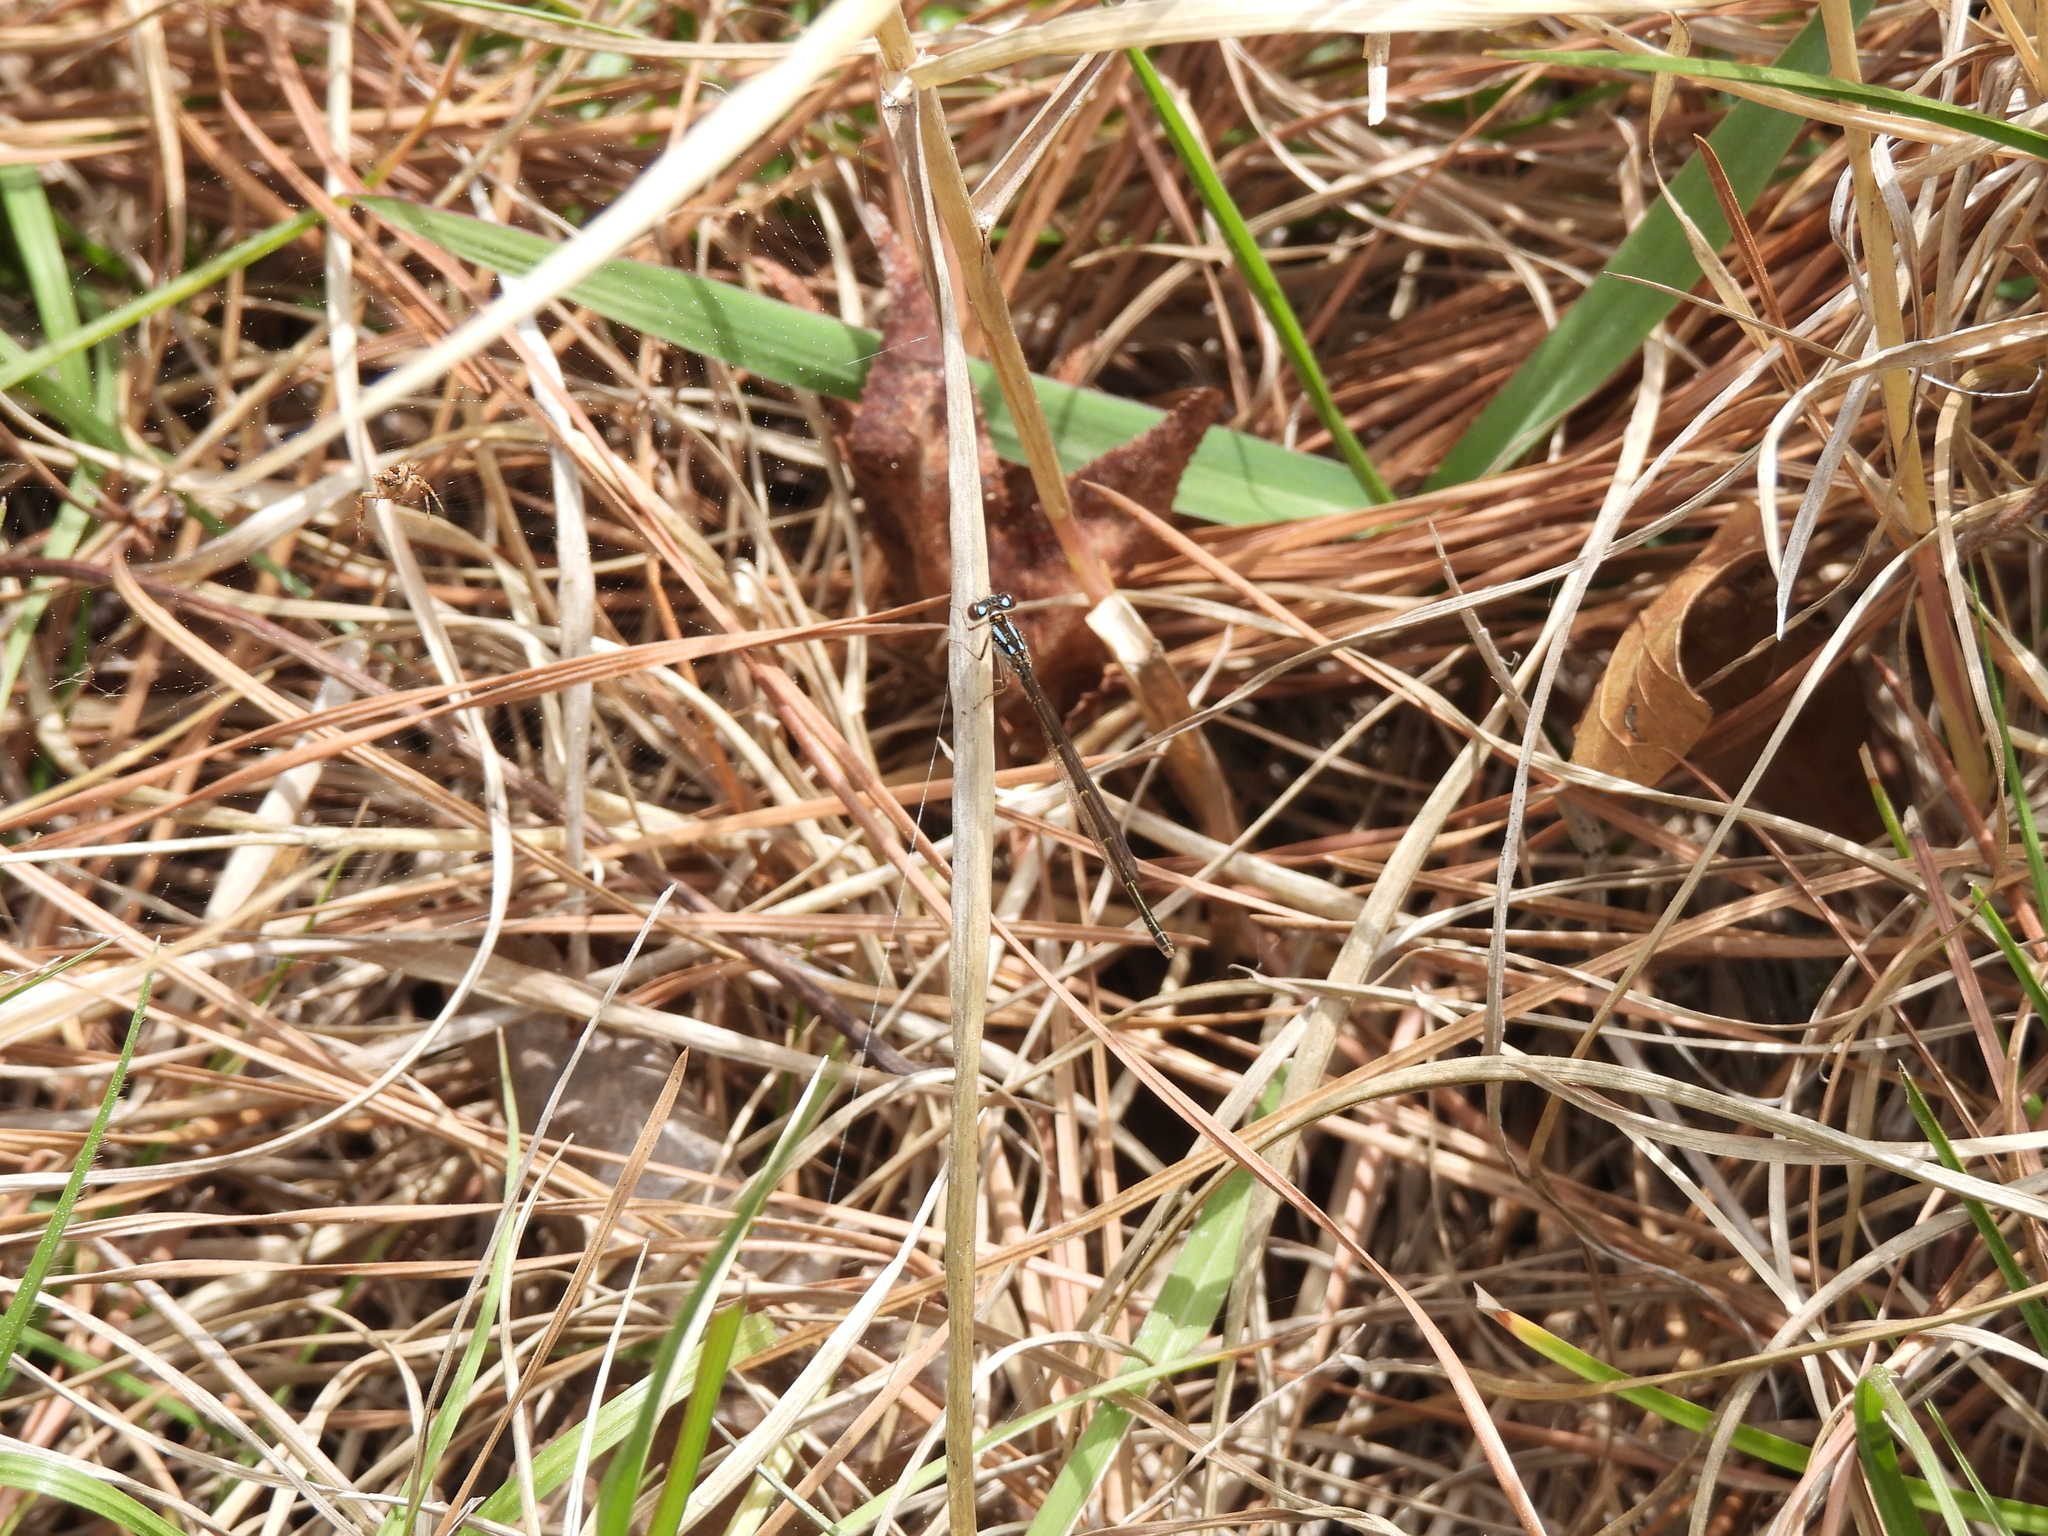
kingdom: Animalia
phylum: Arthropoda
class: Insecta
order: Odonata
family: Coenagrionidae
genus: Ischnura
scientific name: Ischnura posita
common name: Fragile forktail
